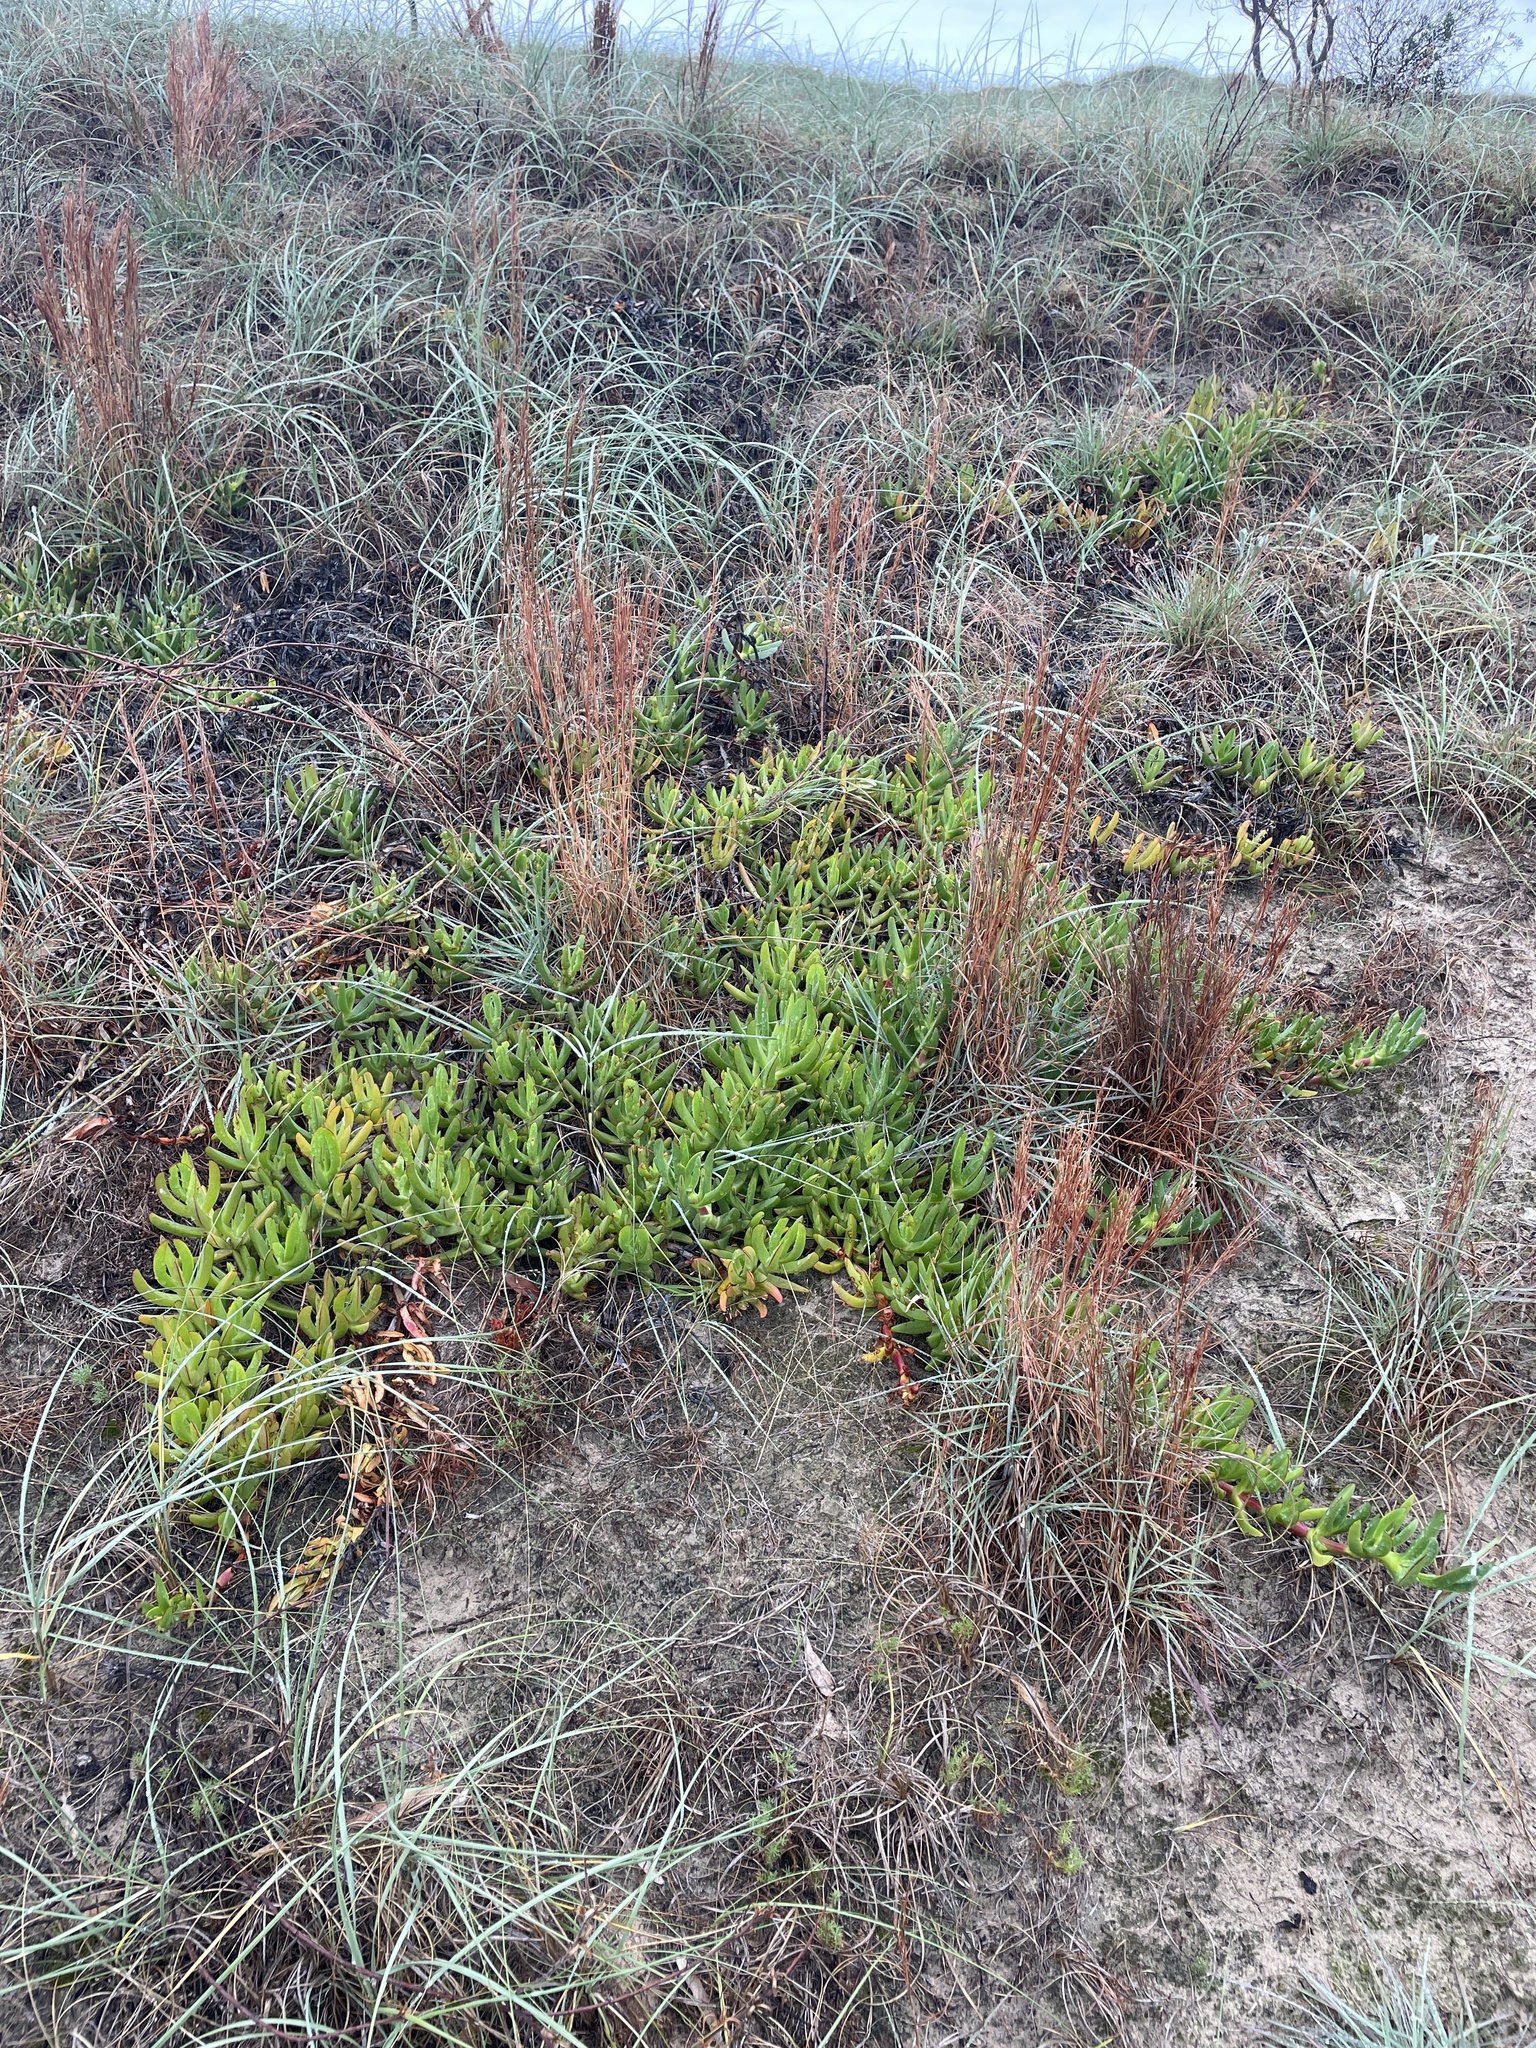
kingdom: Plantae
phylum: Tracheophyta
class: Magnoliopsida
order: Caryophyllales
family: Aizoaceae
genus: Carpobrotus
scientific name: Carpobrotus edulis
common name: Hottentot-fig
